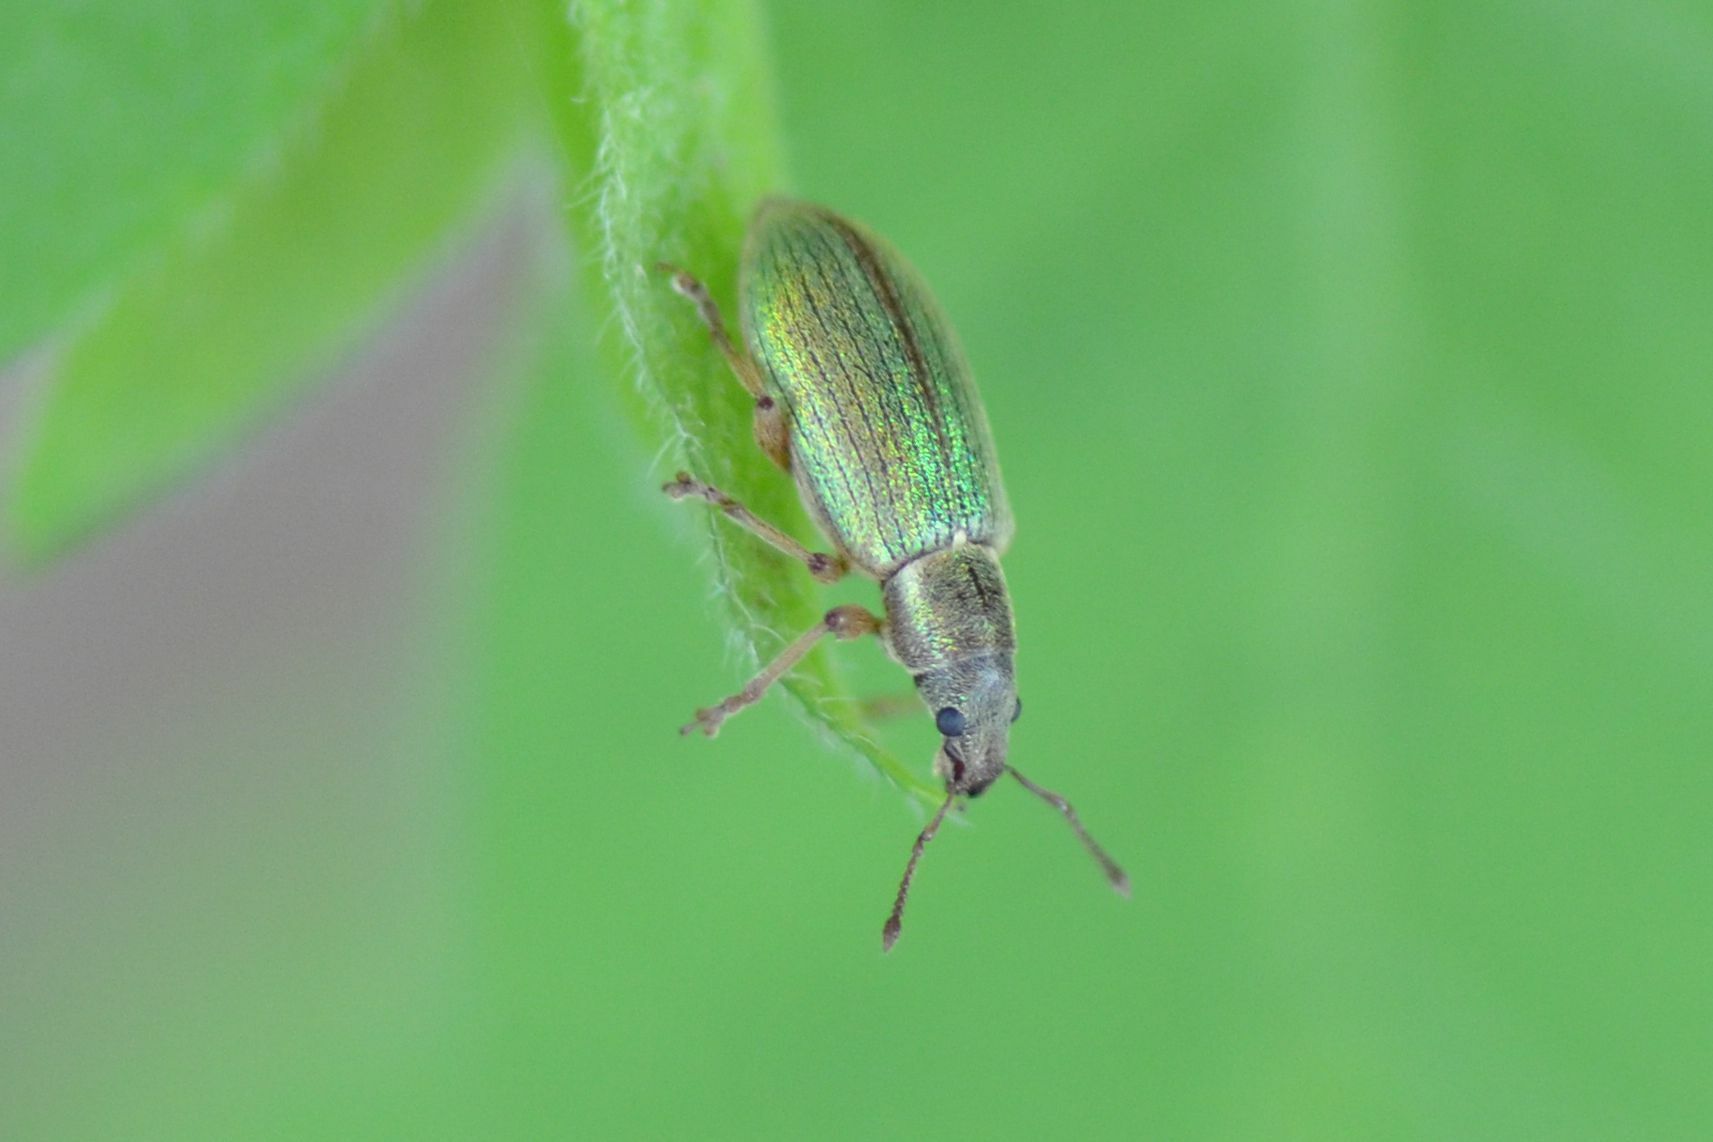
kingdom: Animalia
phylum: Arthropoda
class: Insecta
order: Coleoptera
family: Curculionidae
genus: Polydrusus
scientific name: Polydrusus viridinitens
